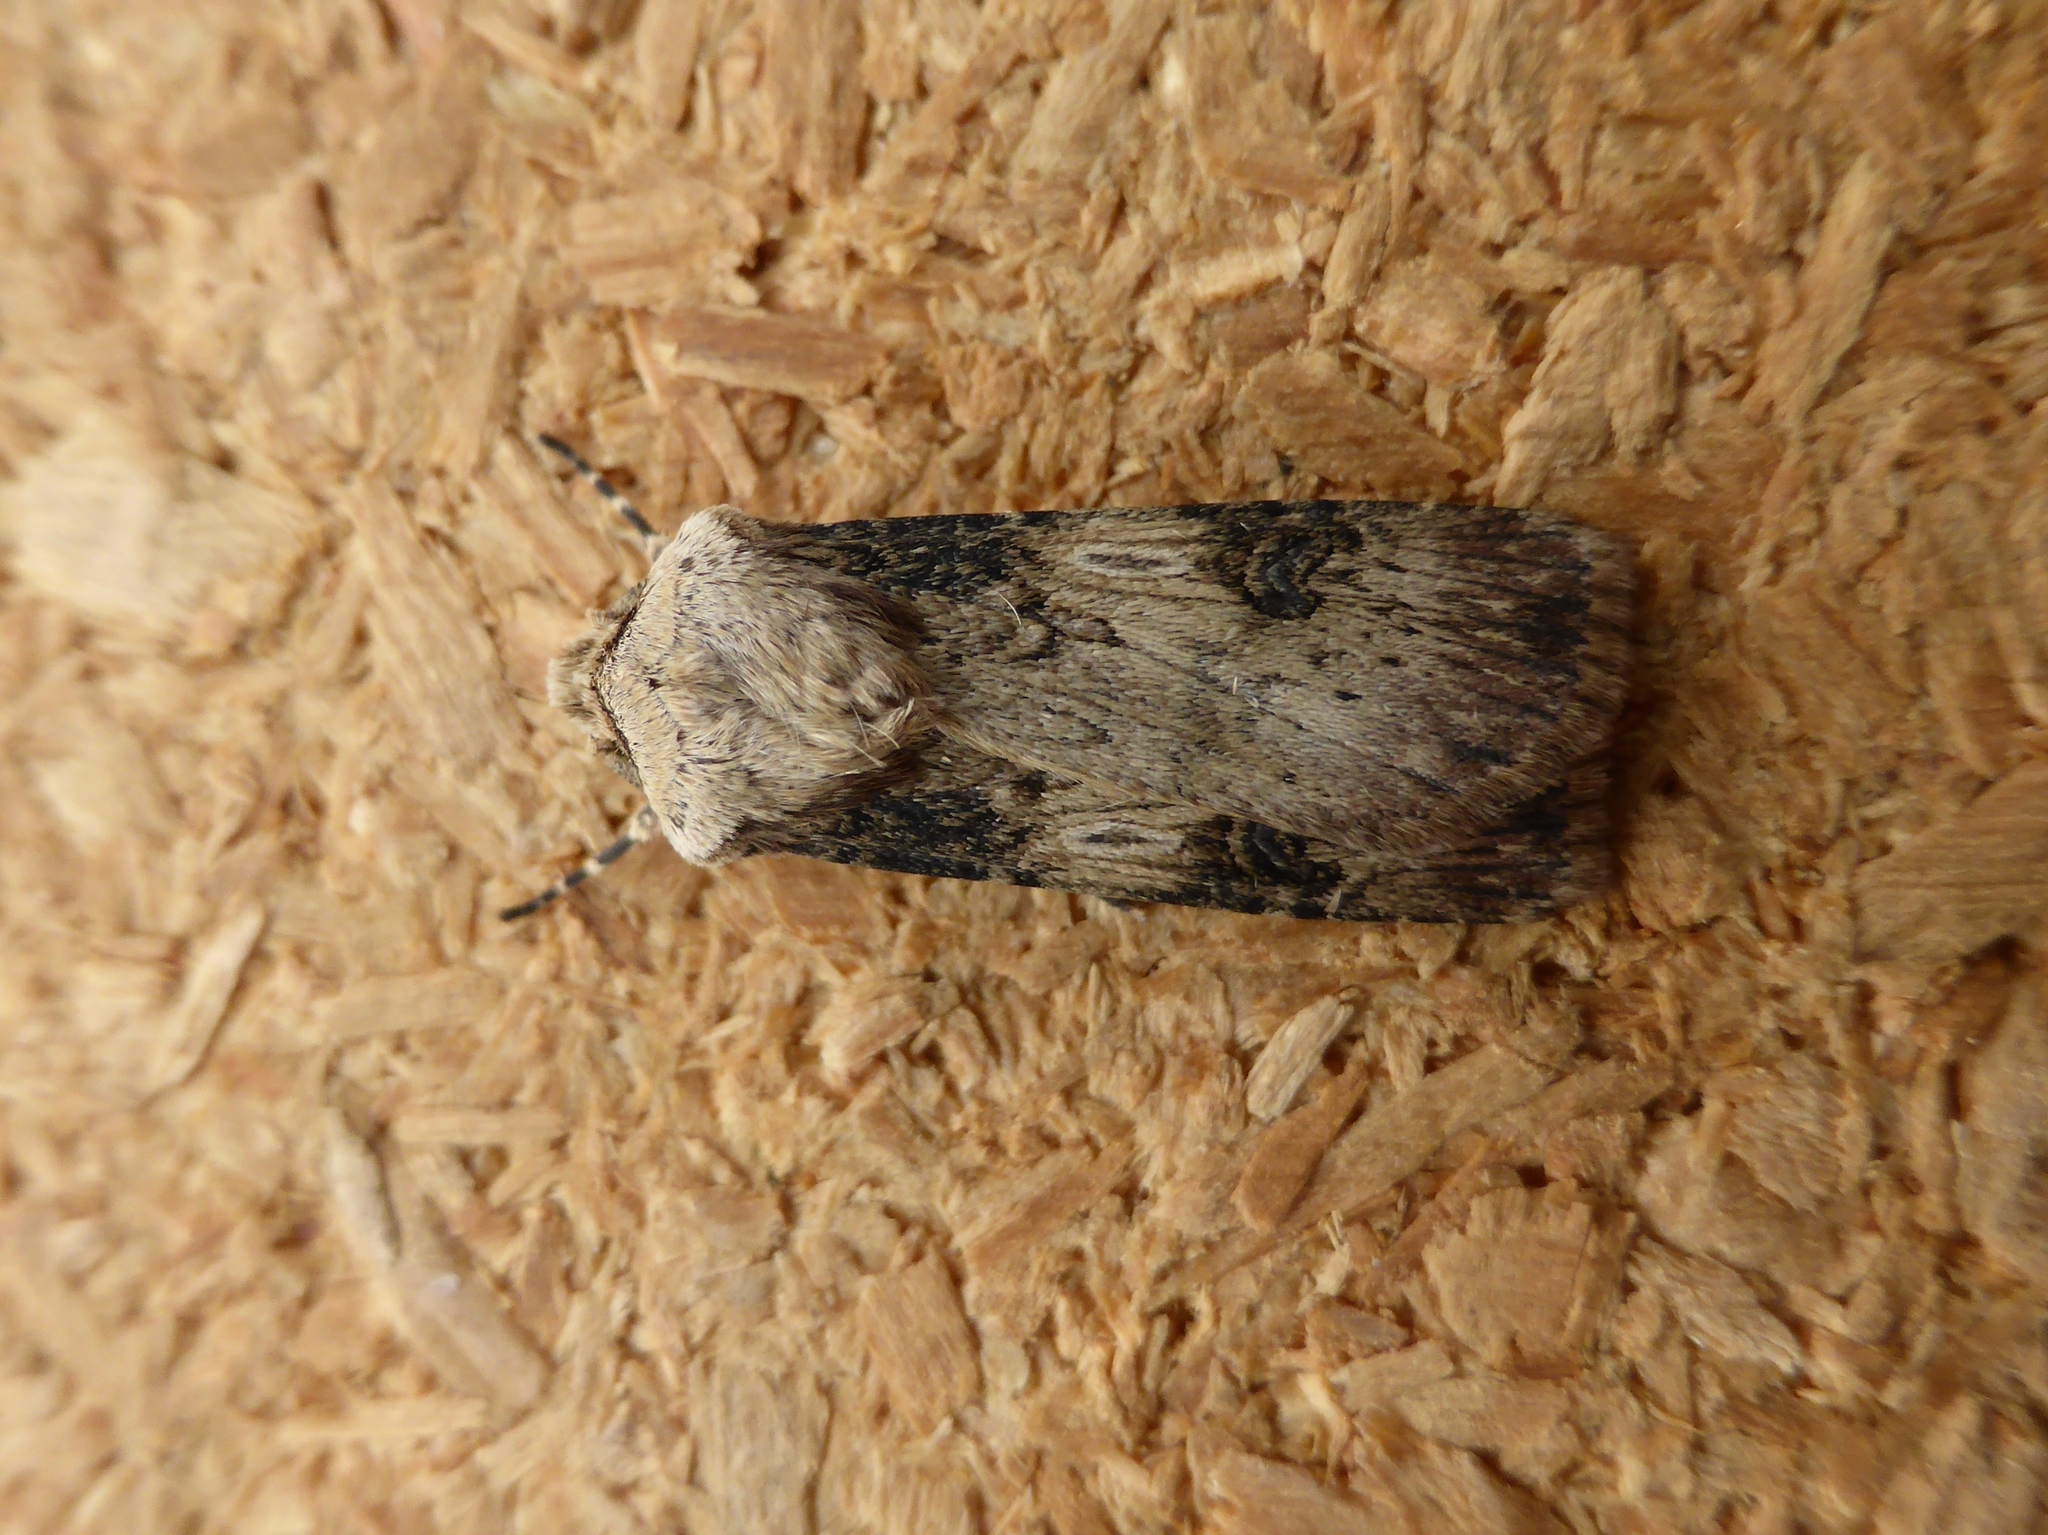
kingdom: Animalia
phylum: Arthropoda
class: Insecta
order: Lepidoptera
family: Noctuidae
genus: Agrotis
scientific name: Agrotis puta
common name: Shuttle-shaped dart
